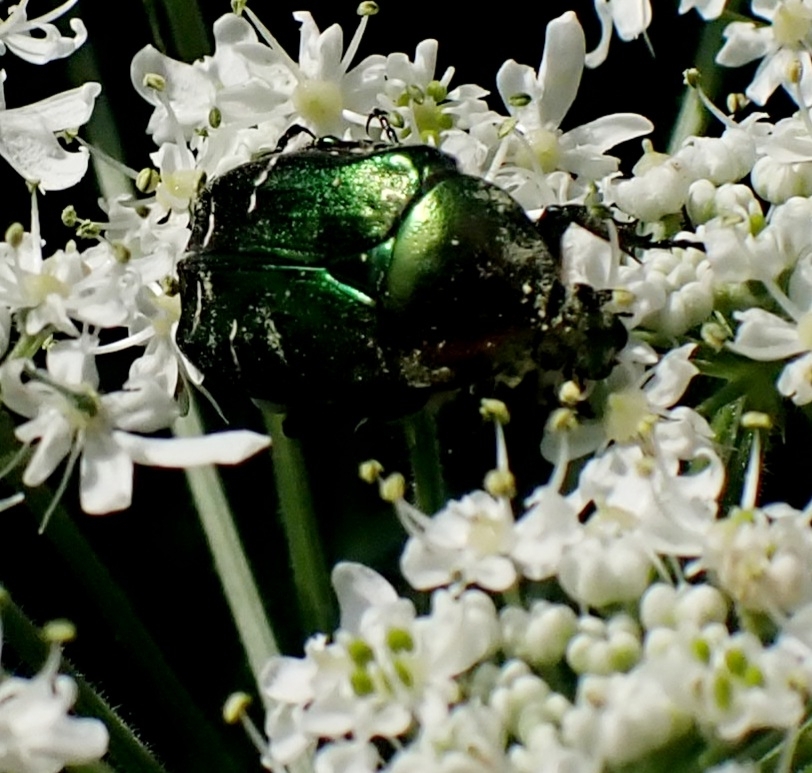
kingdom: Animalia
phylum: Arthropoda
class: Insecta
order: Coleoptera
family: Scarabaeidae
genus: Cetonia
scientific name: Cetonia aurata
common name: Rose chafer
